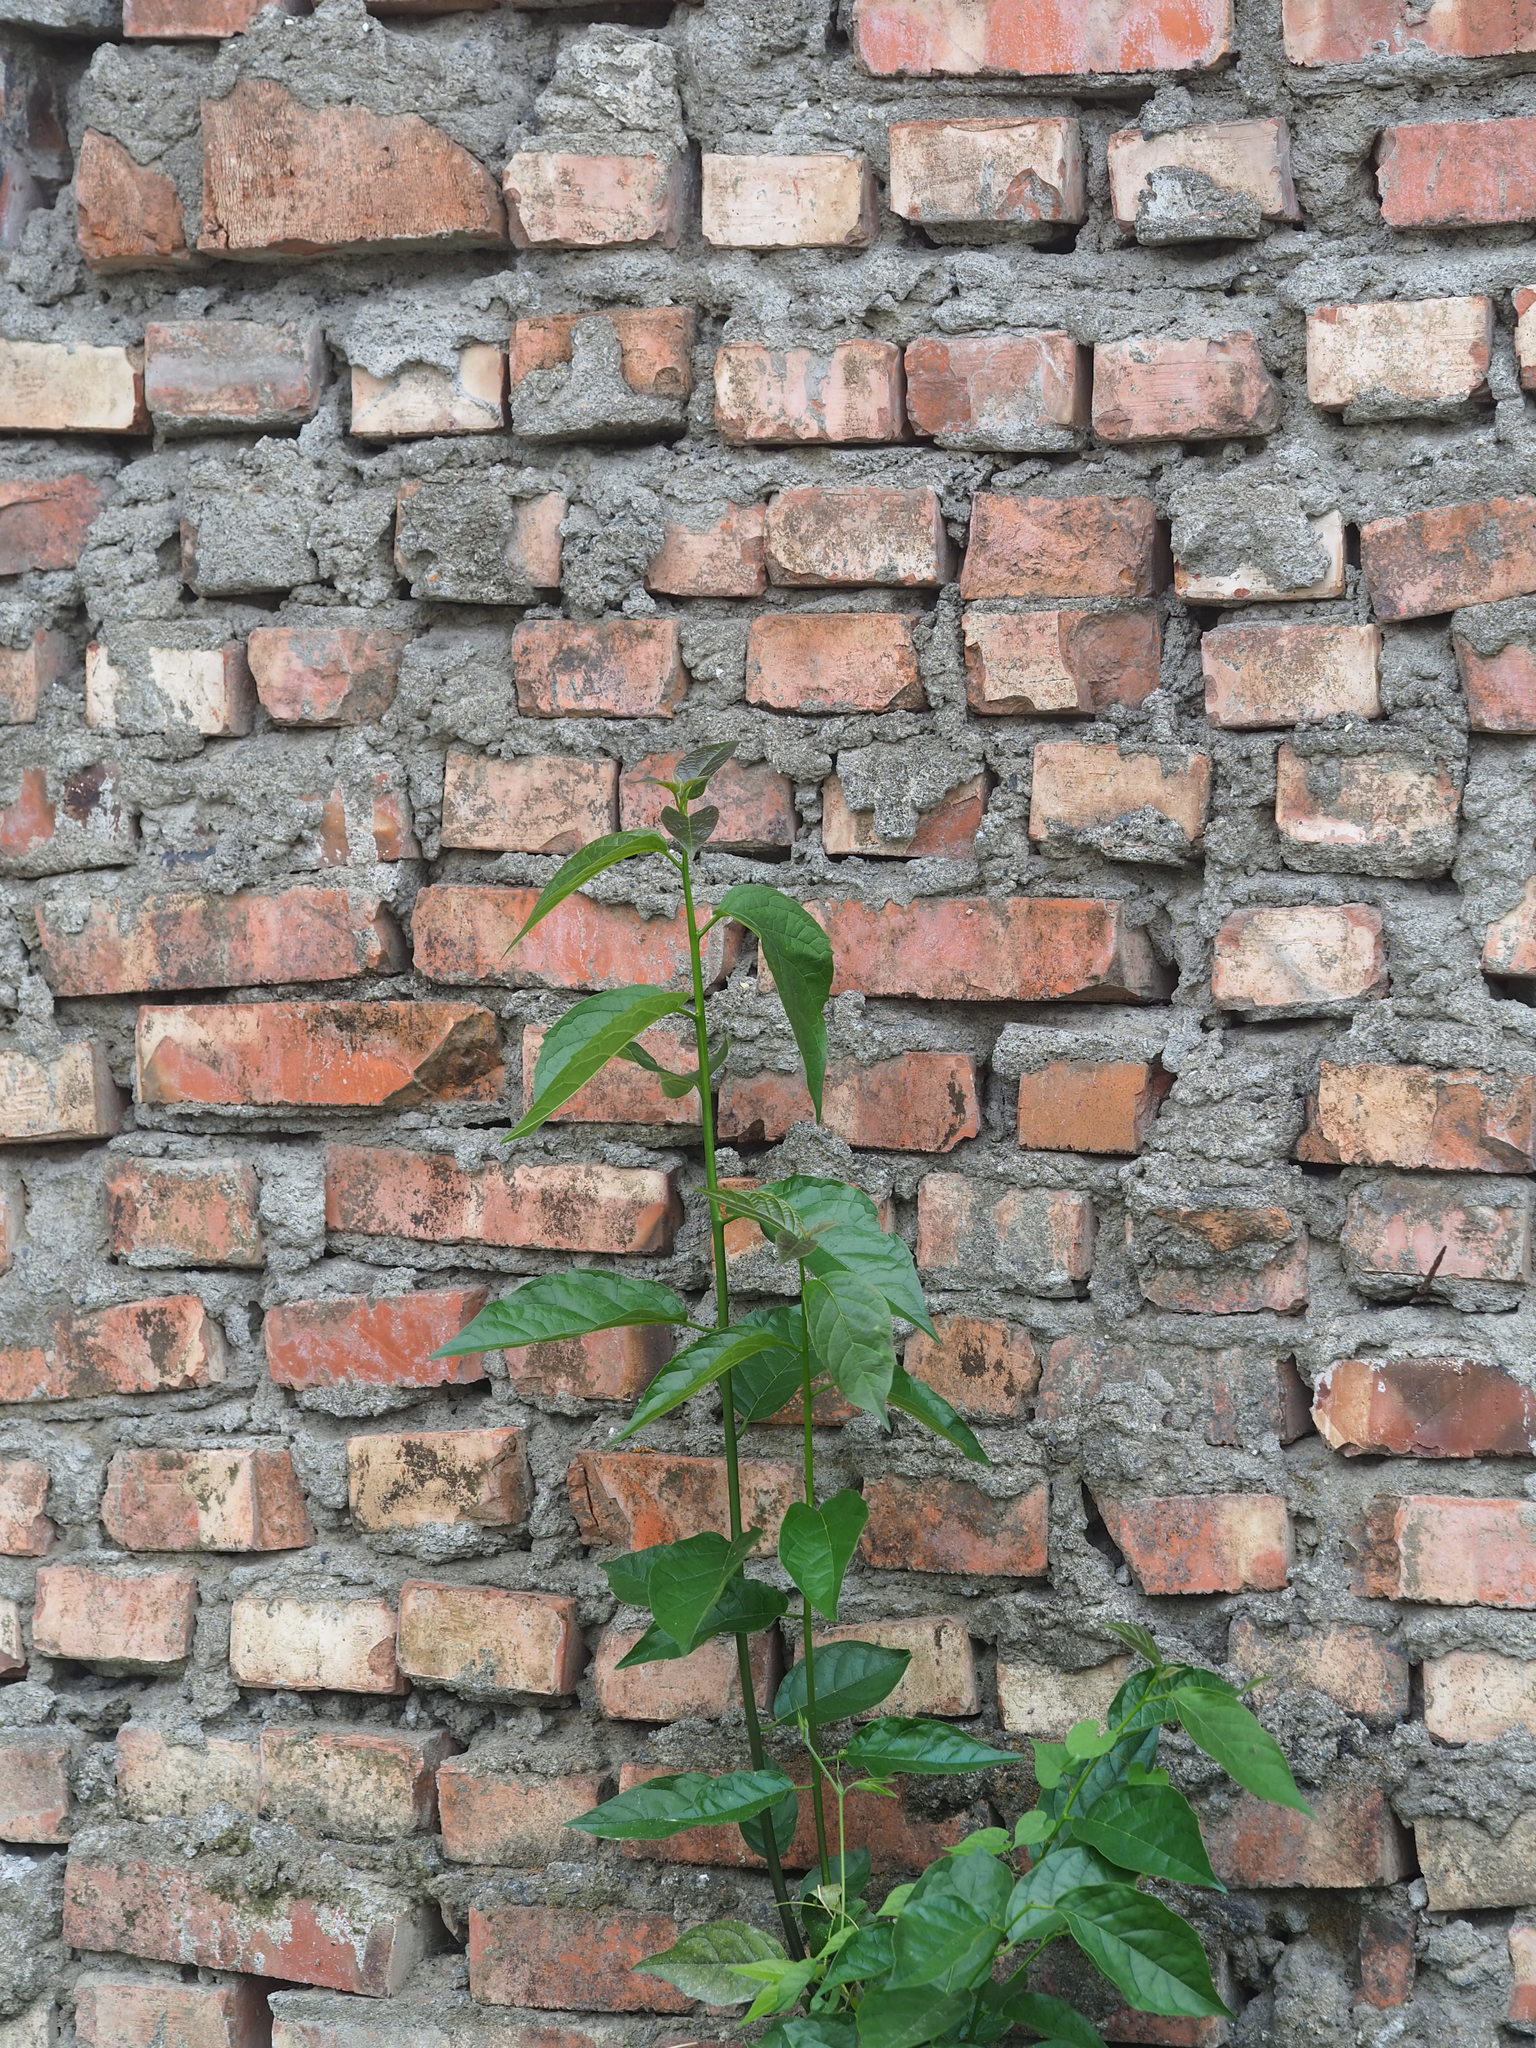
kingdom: Plantae
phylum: Tracheophyta
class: Magnoliopsida
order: Boraginales
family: Ehretiaceae
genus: Ehretia
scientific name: Ehretia resinosa
